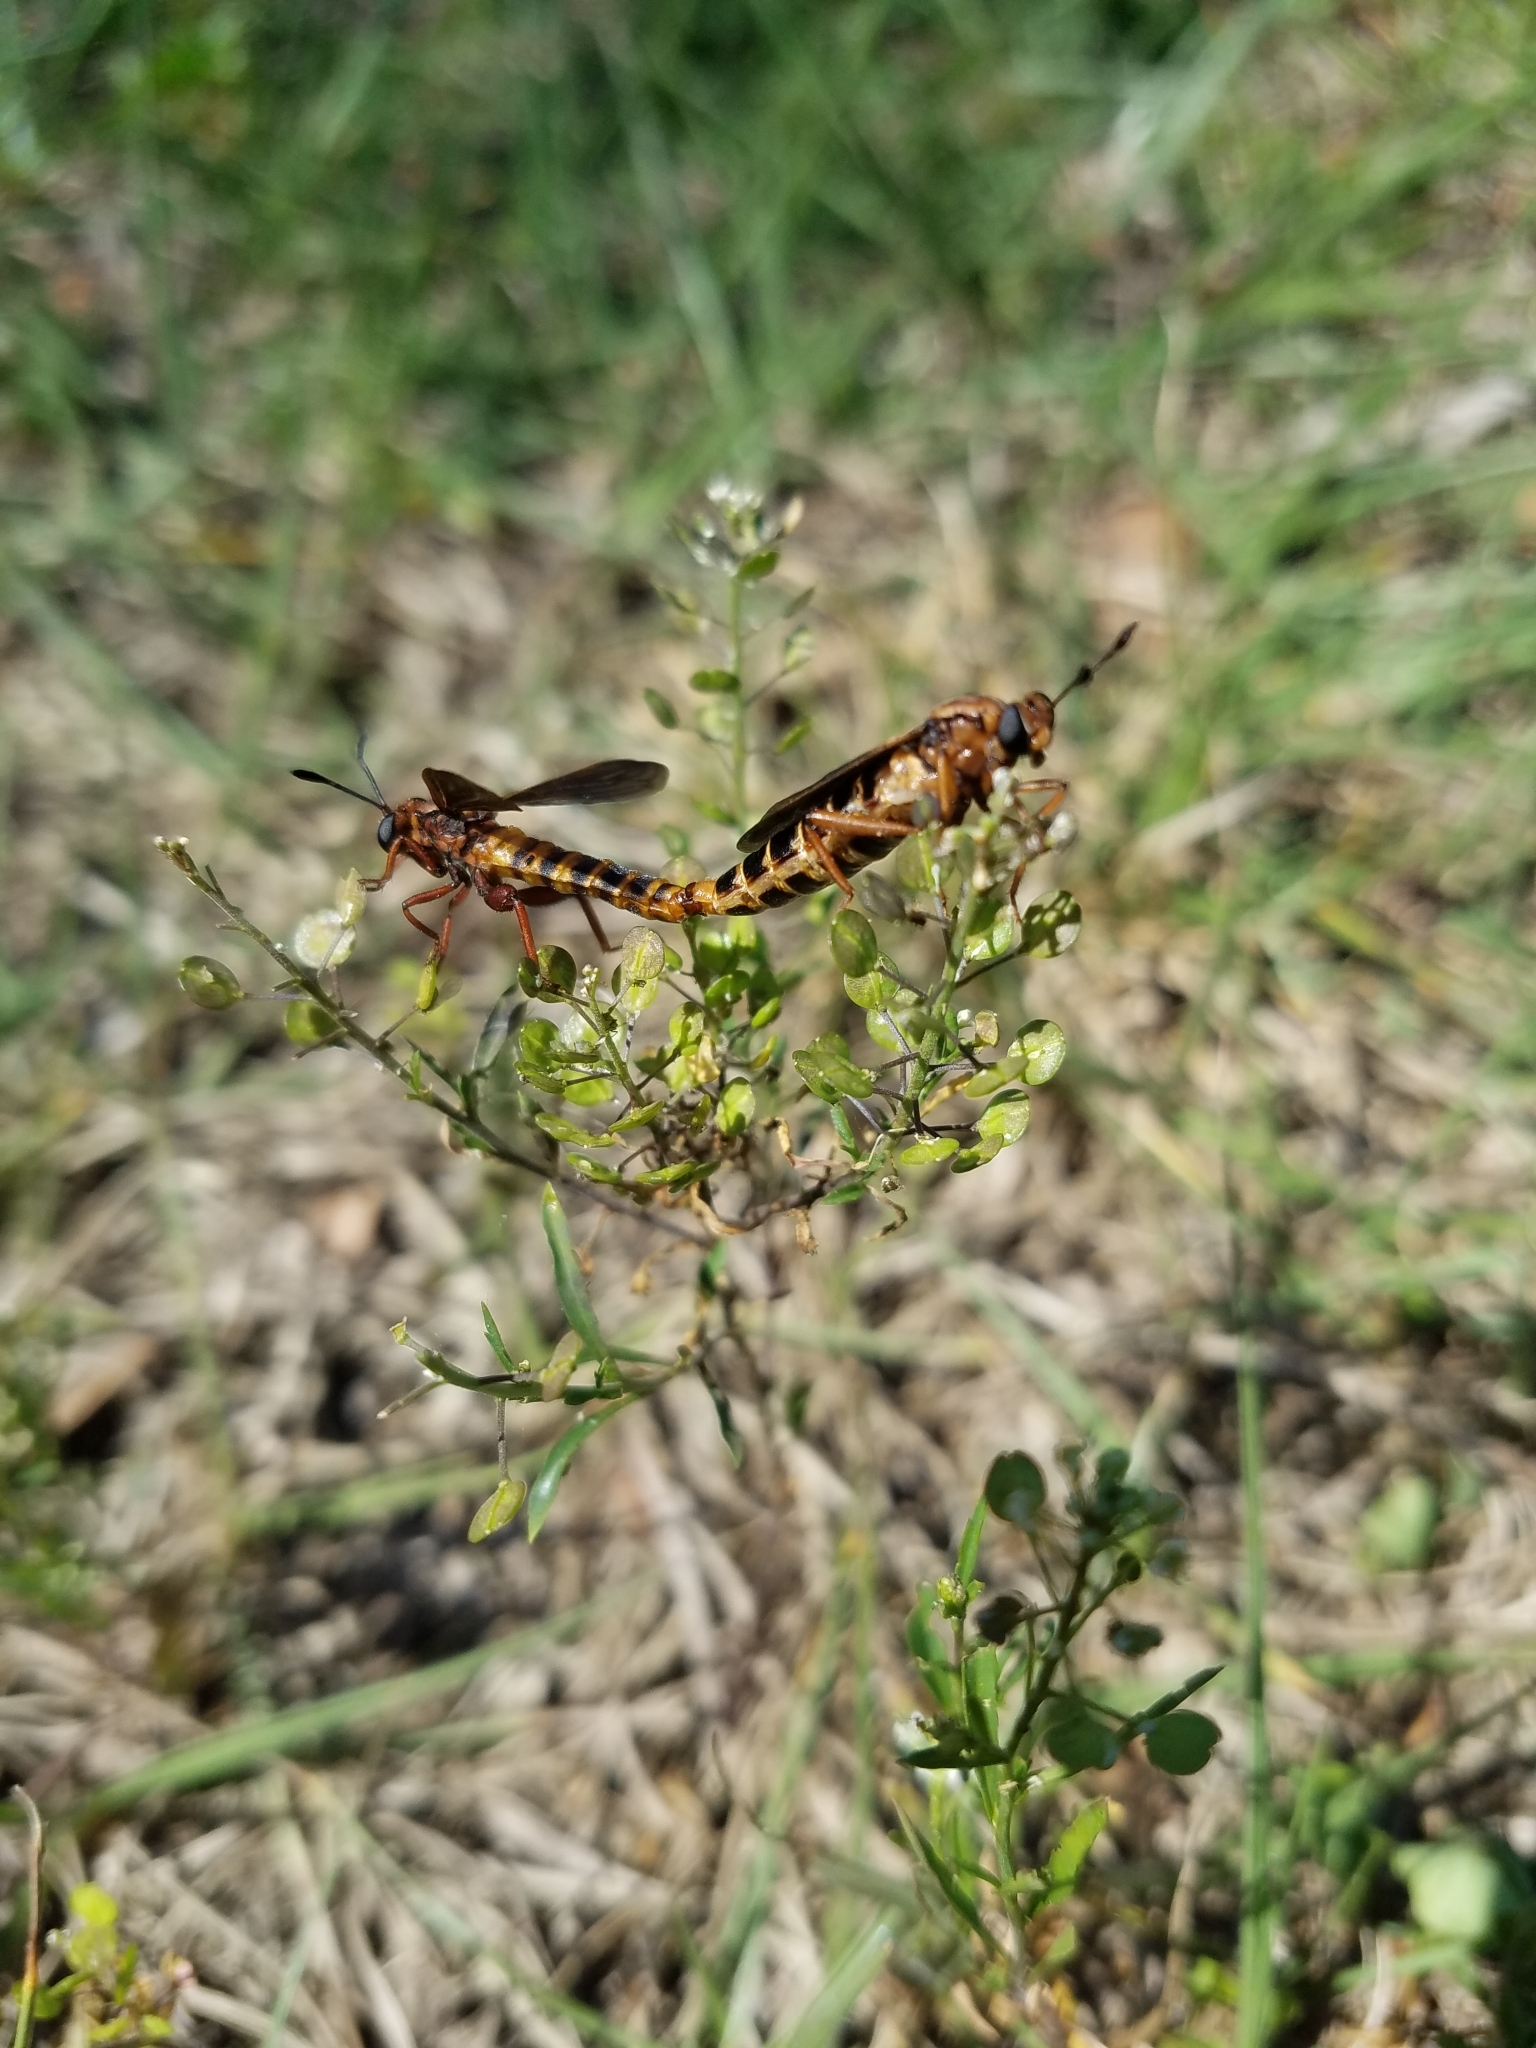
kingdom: Animalia
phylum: Arthropoda
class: Insecta
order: Diptera
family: Mydidae
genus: Phyllomydas
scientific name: Phyllomydas parvulus
